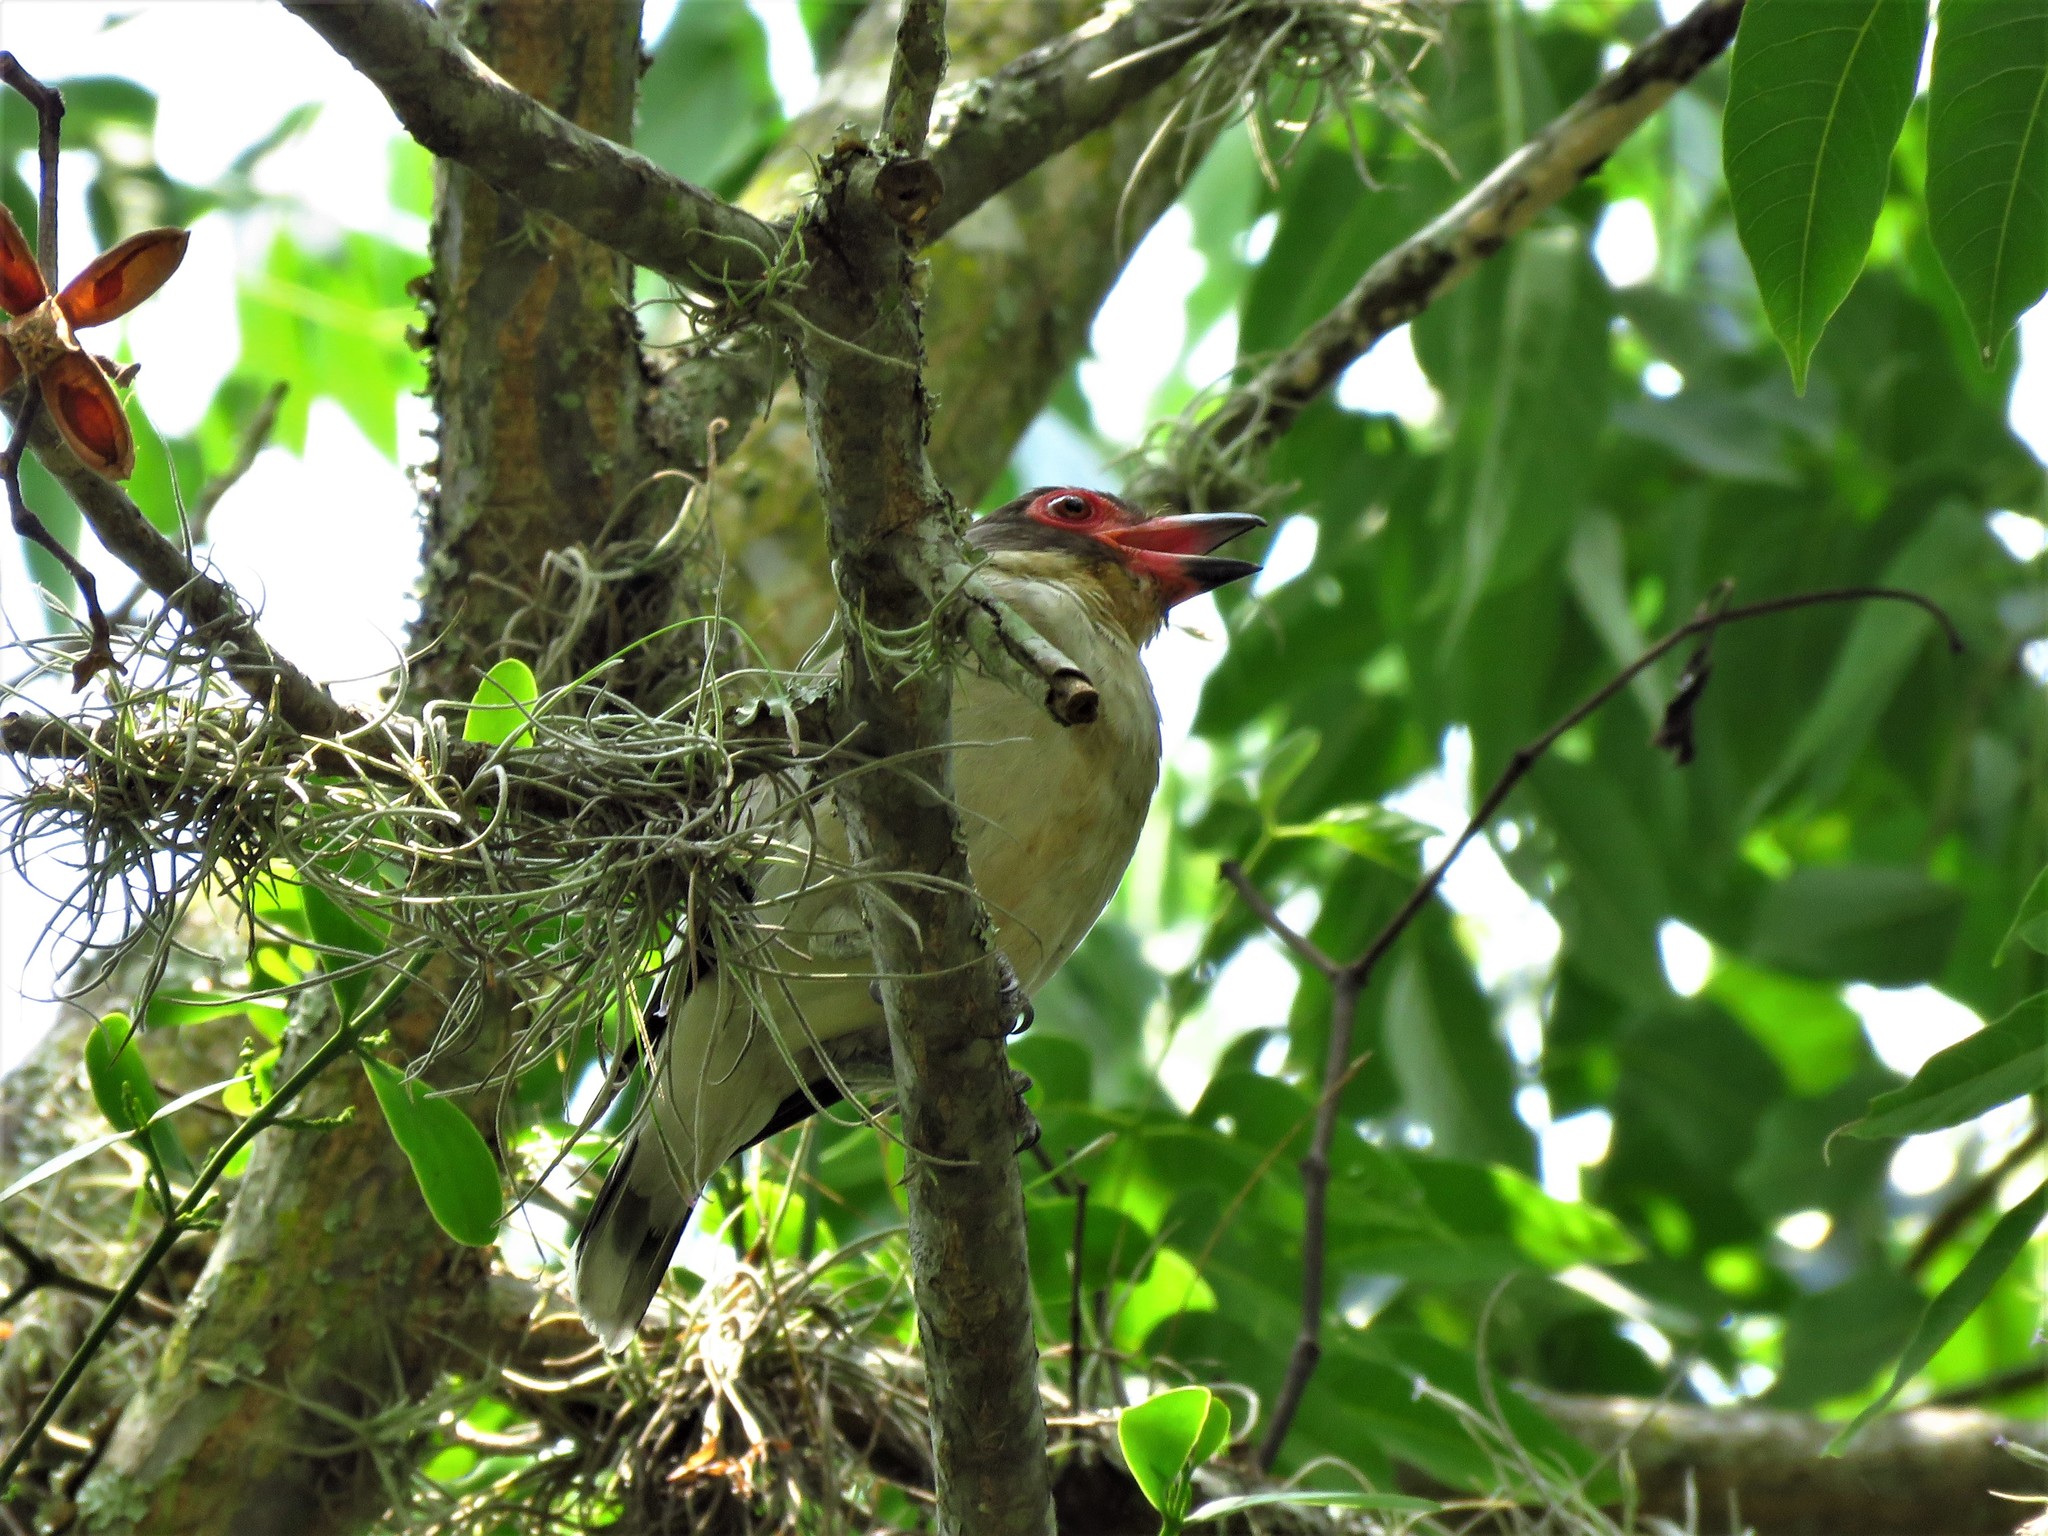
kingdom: Animalia
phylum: Chordata
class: Aves
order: Passeriformes
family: Cotingidae
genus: Tityra
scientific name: Tityra semifasciata
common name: Masked tityra
